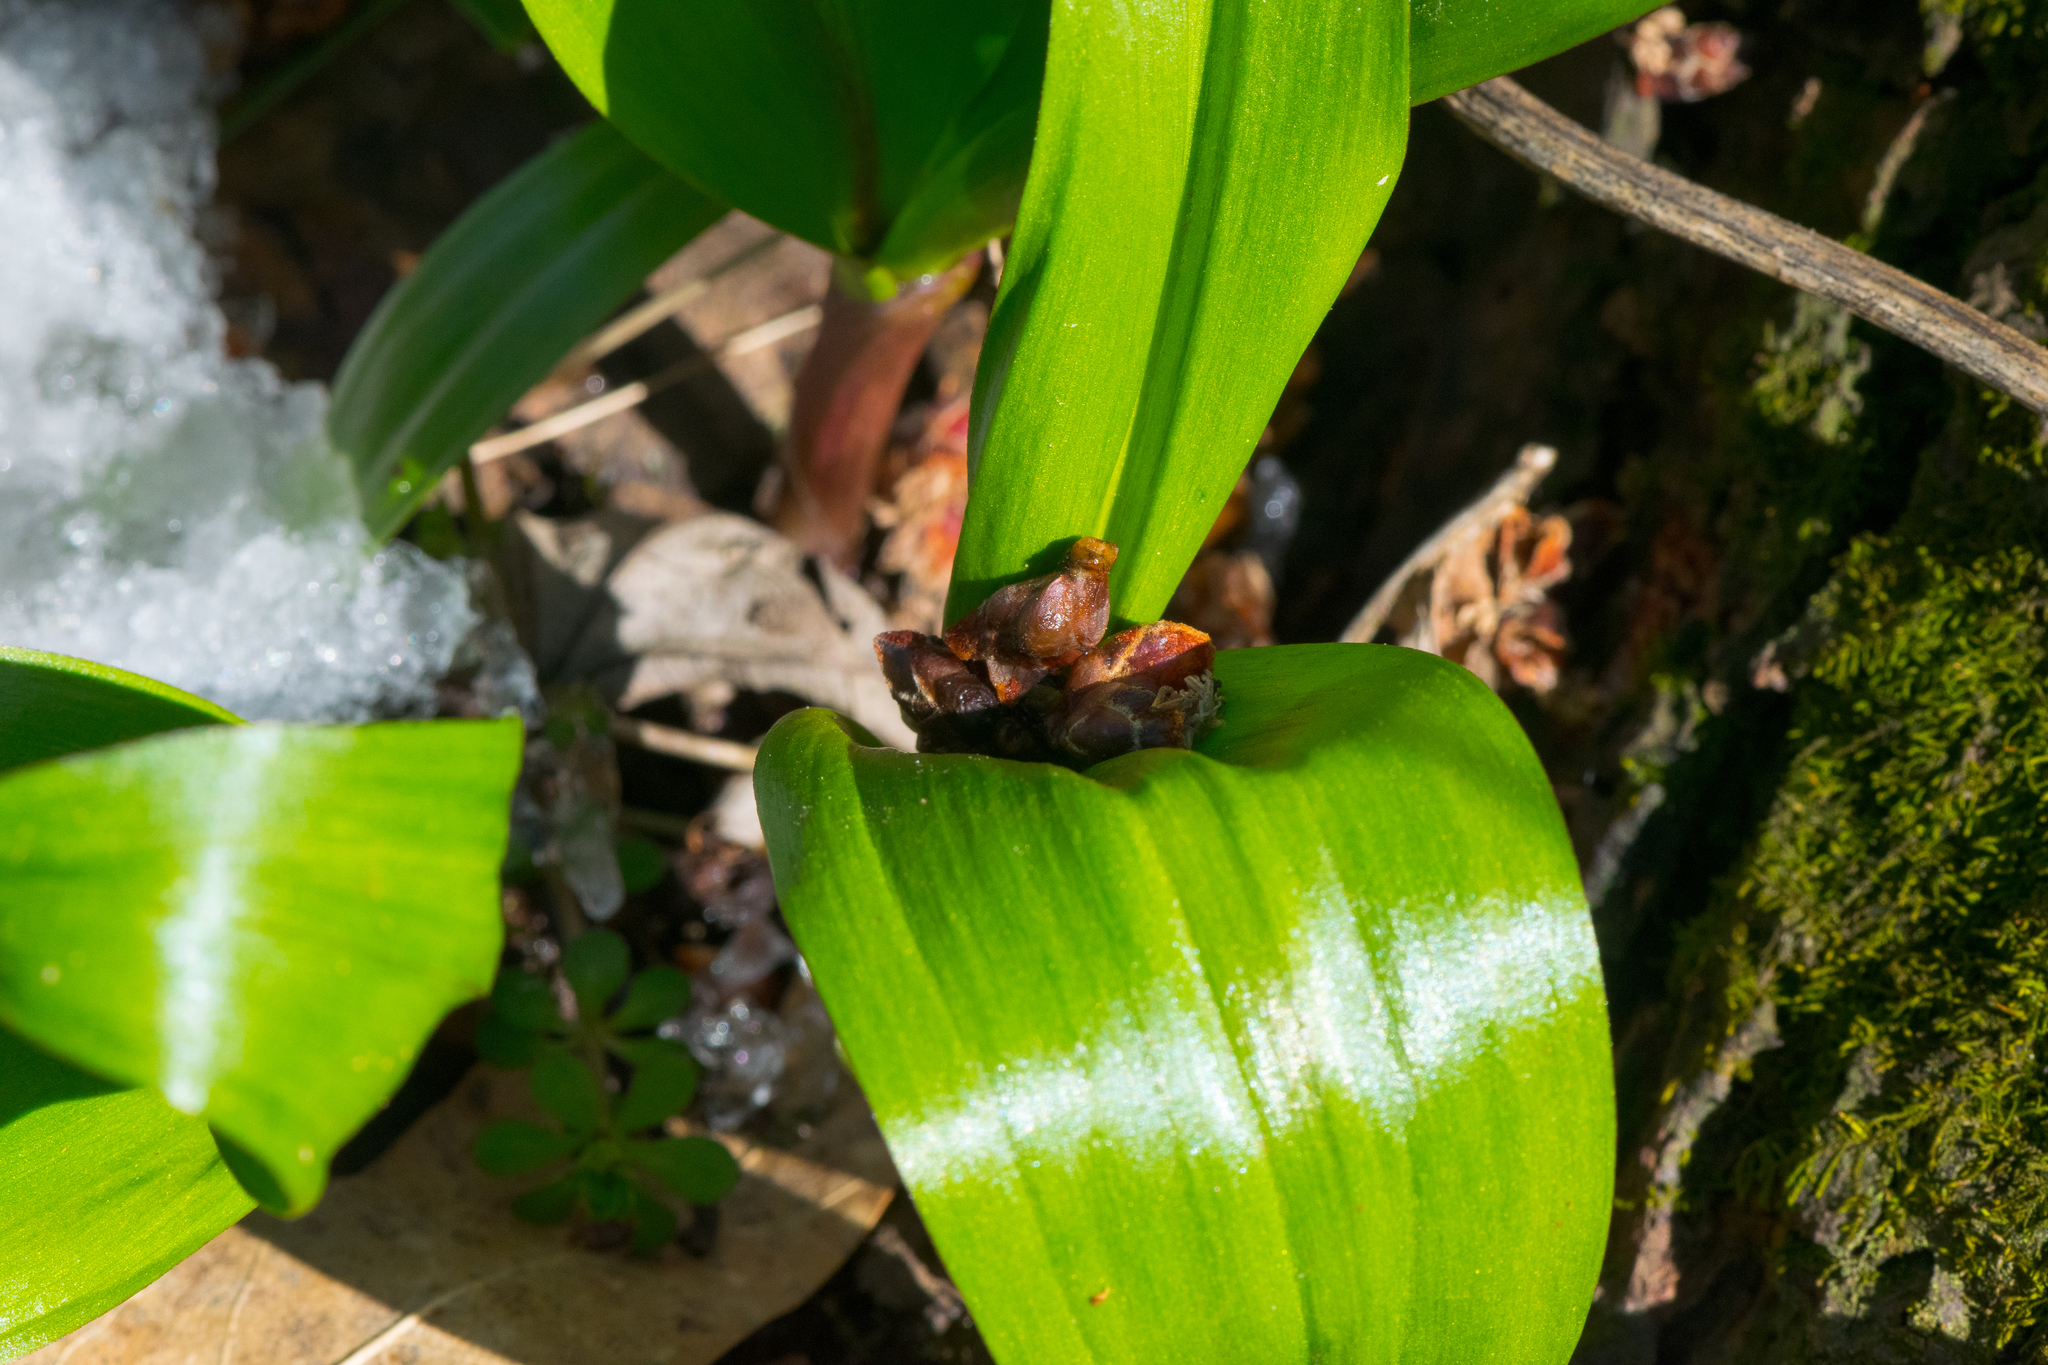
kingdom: Plantae
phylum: Tracheophyta
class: Liliopsida
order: Asparagales
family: Amaryllidaceae
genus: Allium
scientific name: Allium tricoccum
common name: Ramp
